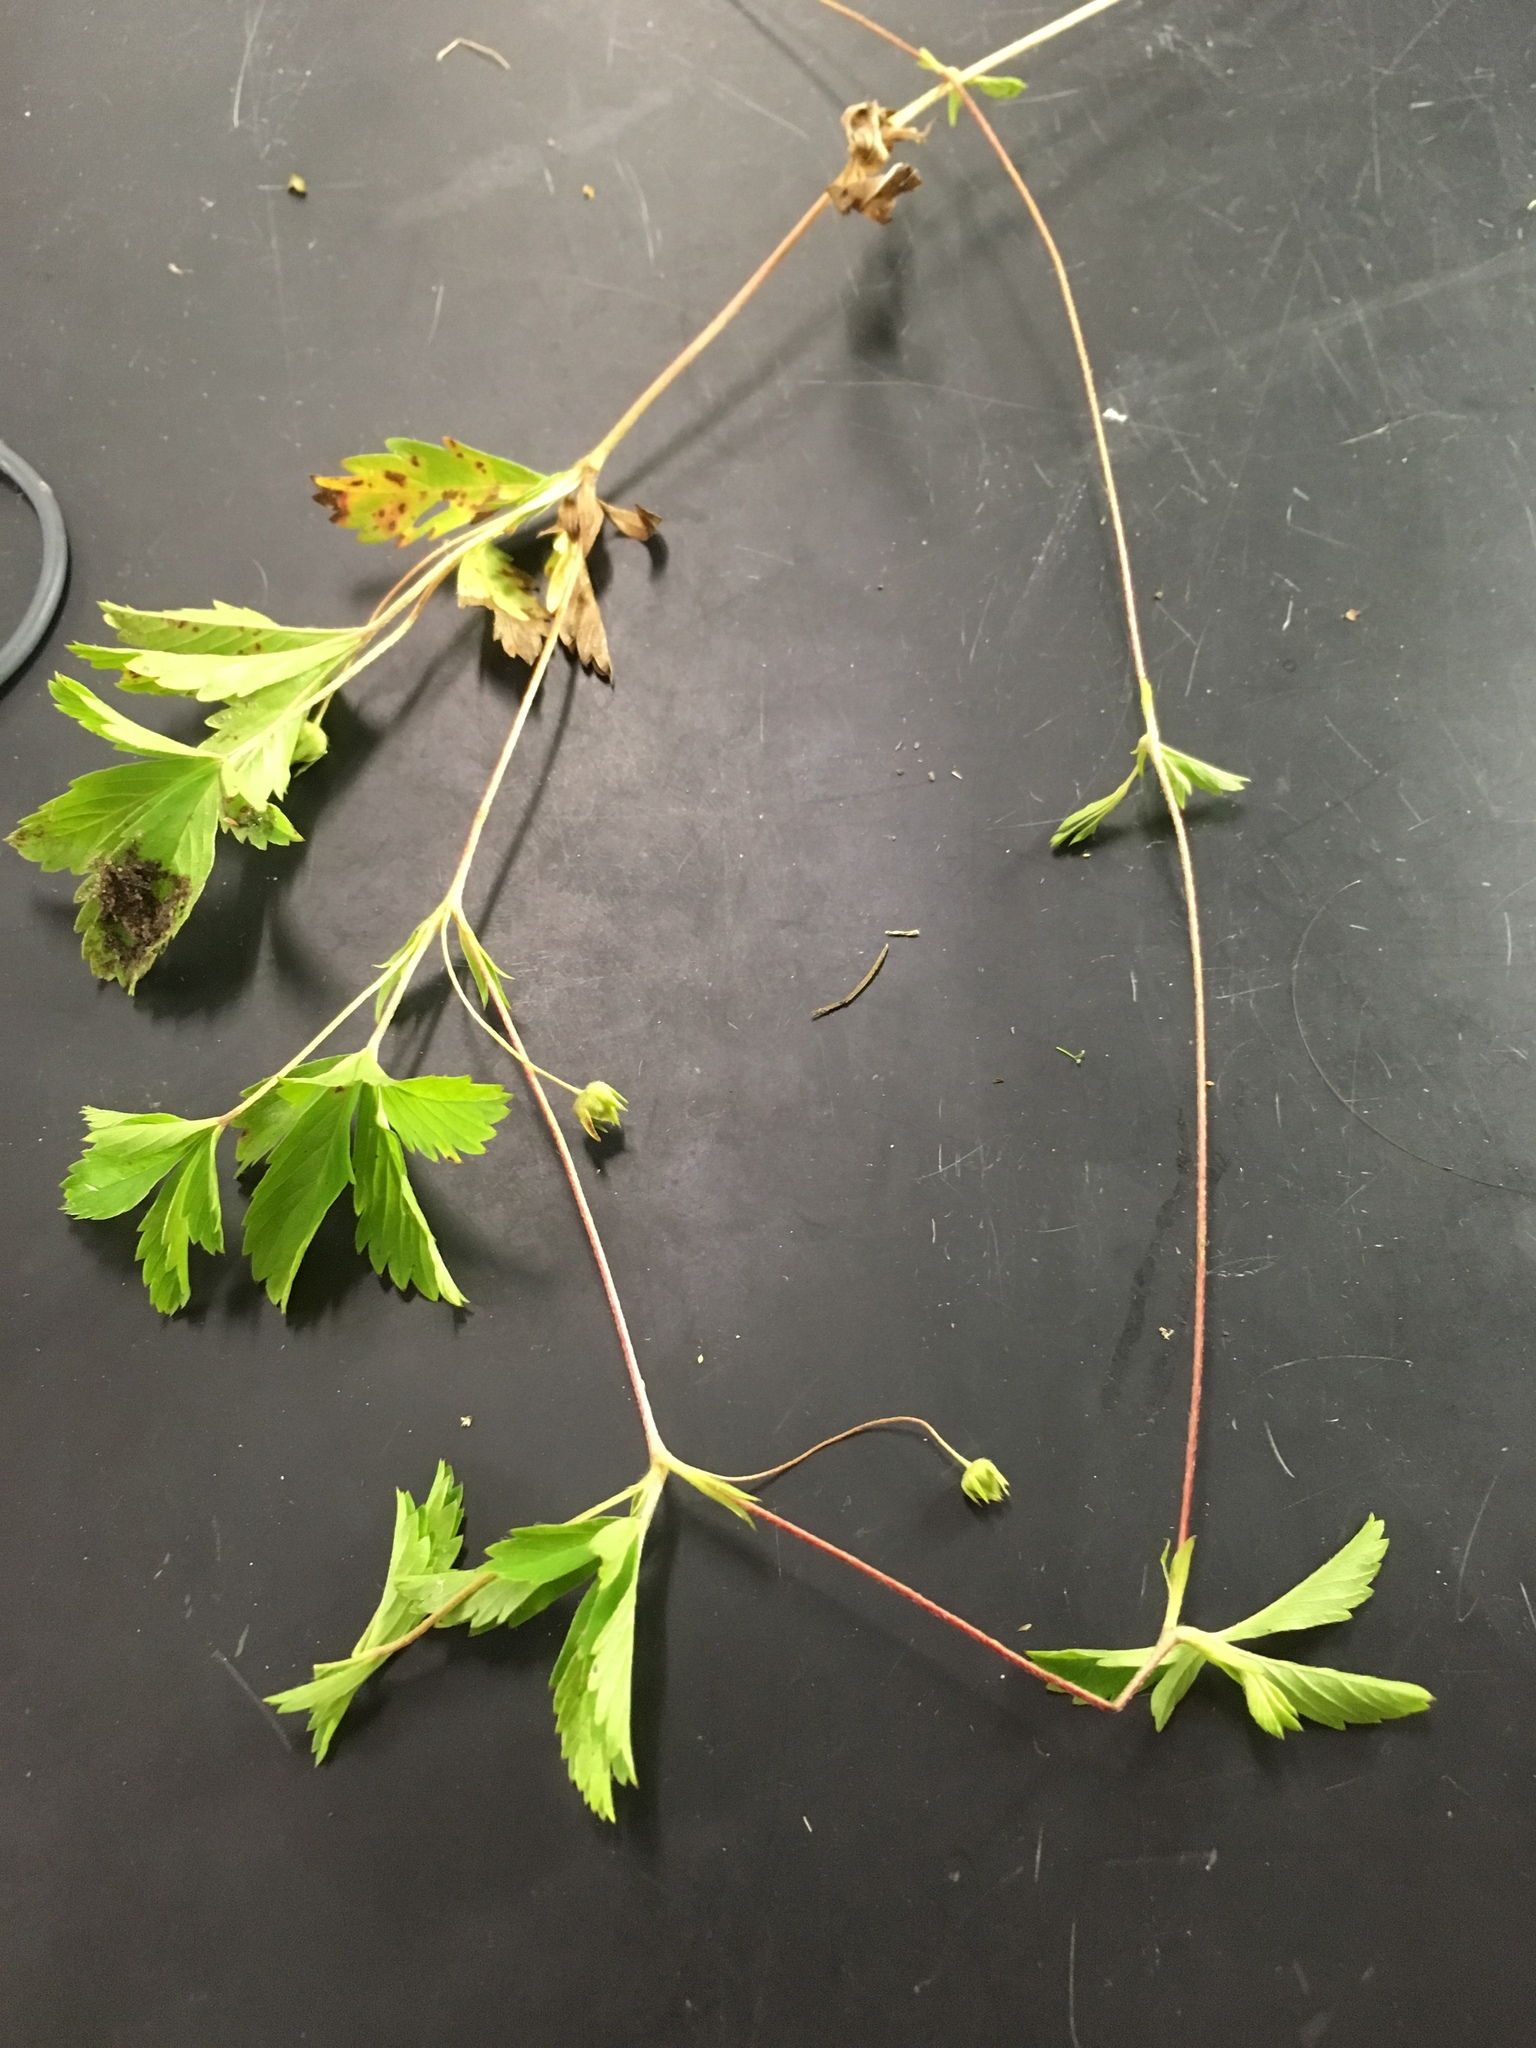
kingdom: Plantae
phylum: Tracheophyta
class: Magnoliopsida
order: Rosales
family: Rosaceae
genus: Potentilla
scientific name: Potentilla simplex
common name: Old field cinquefoil
